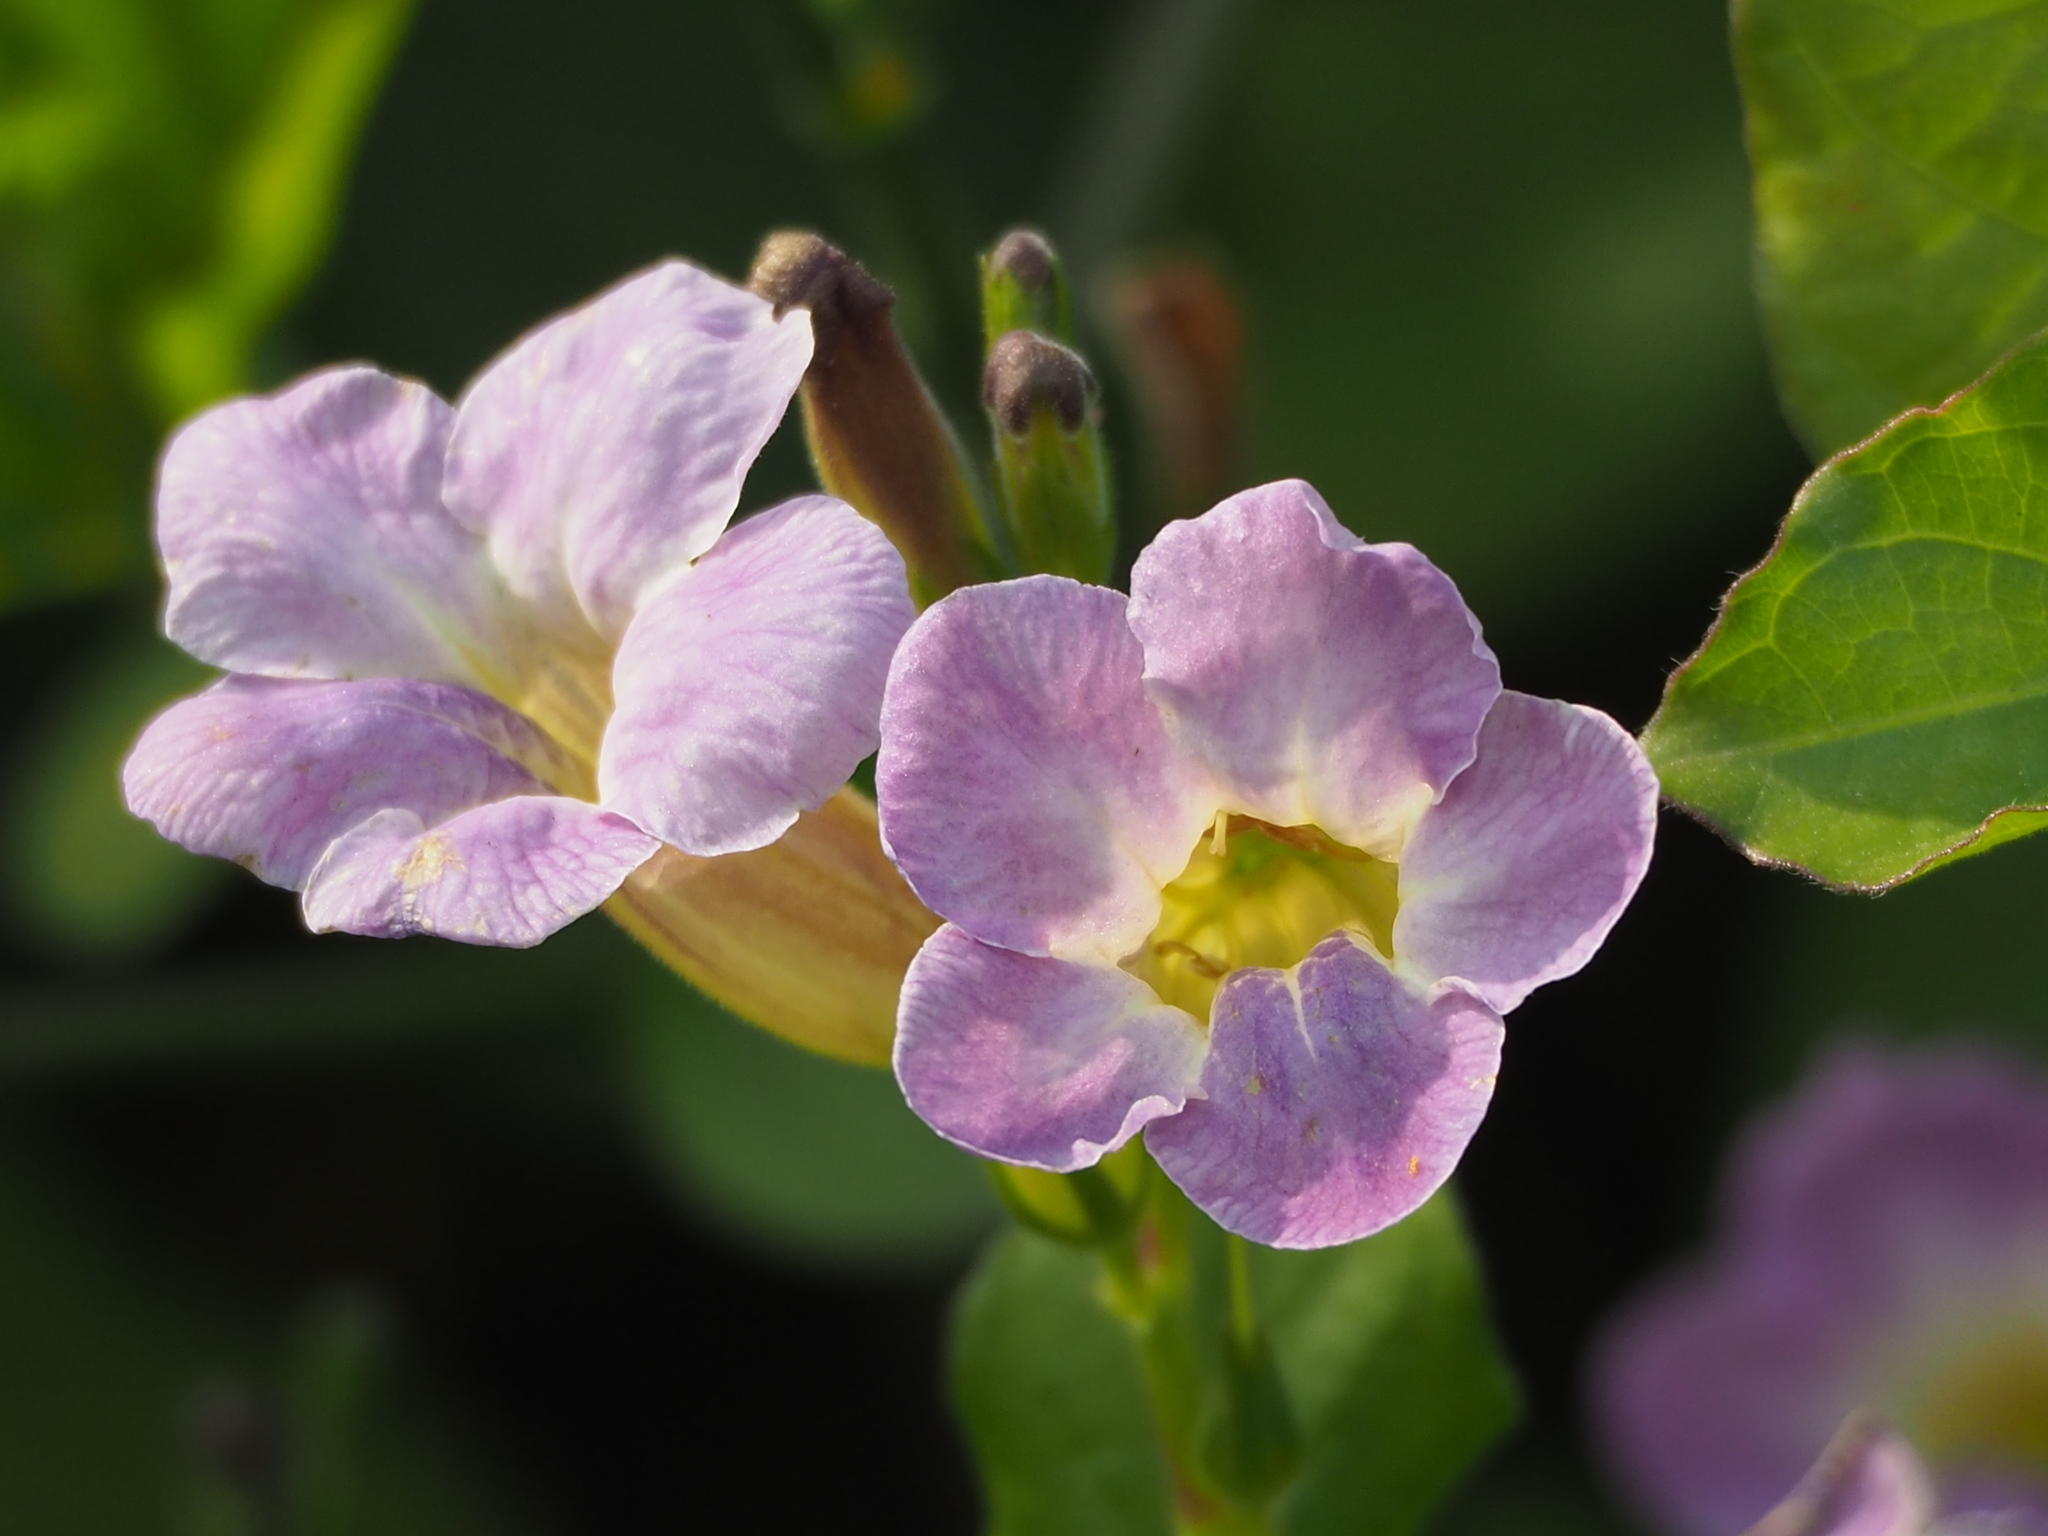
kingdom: Plantae
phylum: Tracheophyta
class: Magnoliopsida
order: Lamiales
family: Acanthaceae
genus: Asystasia
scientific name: Asystasia gangetica
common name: Chinese violet
